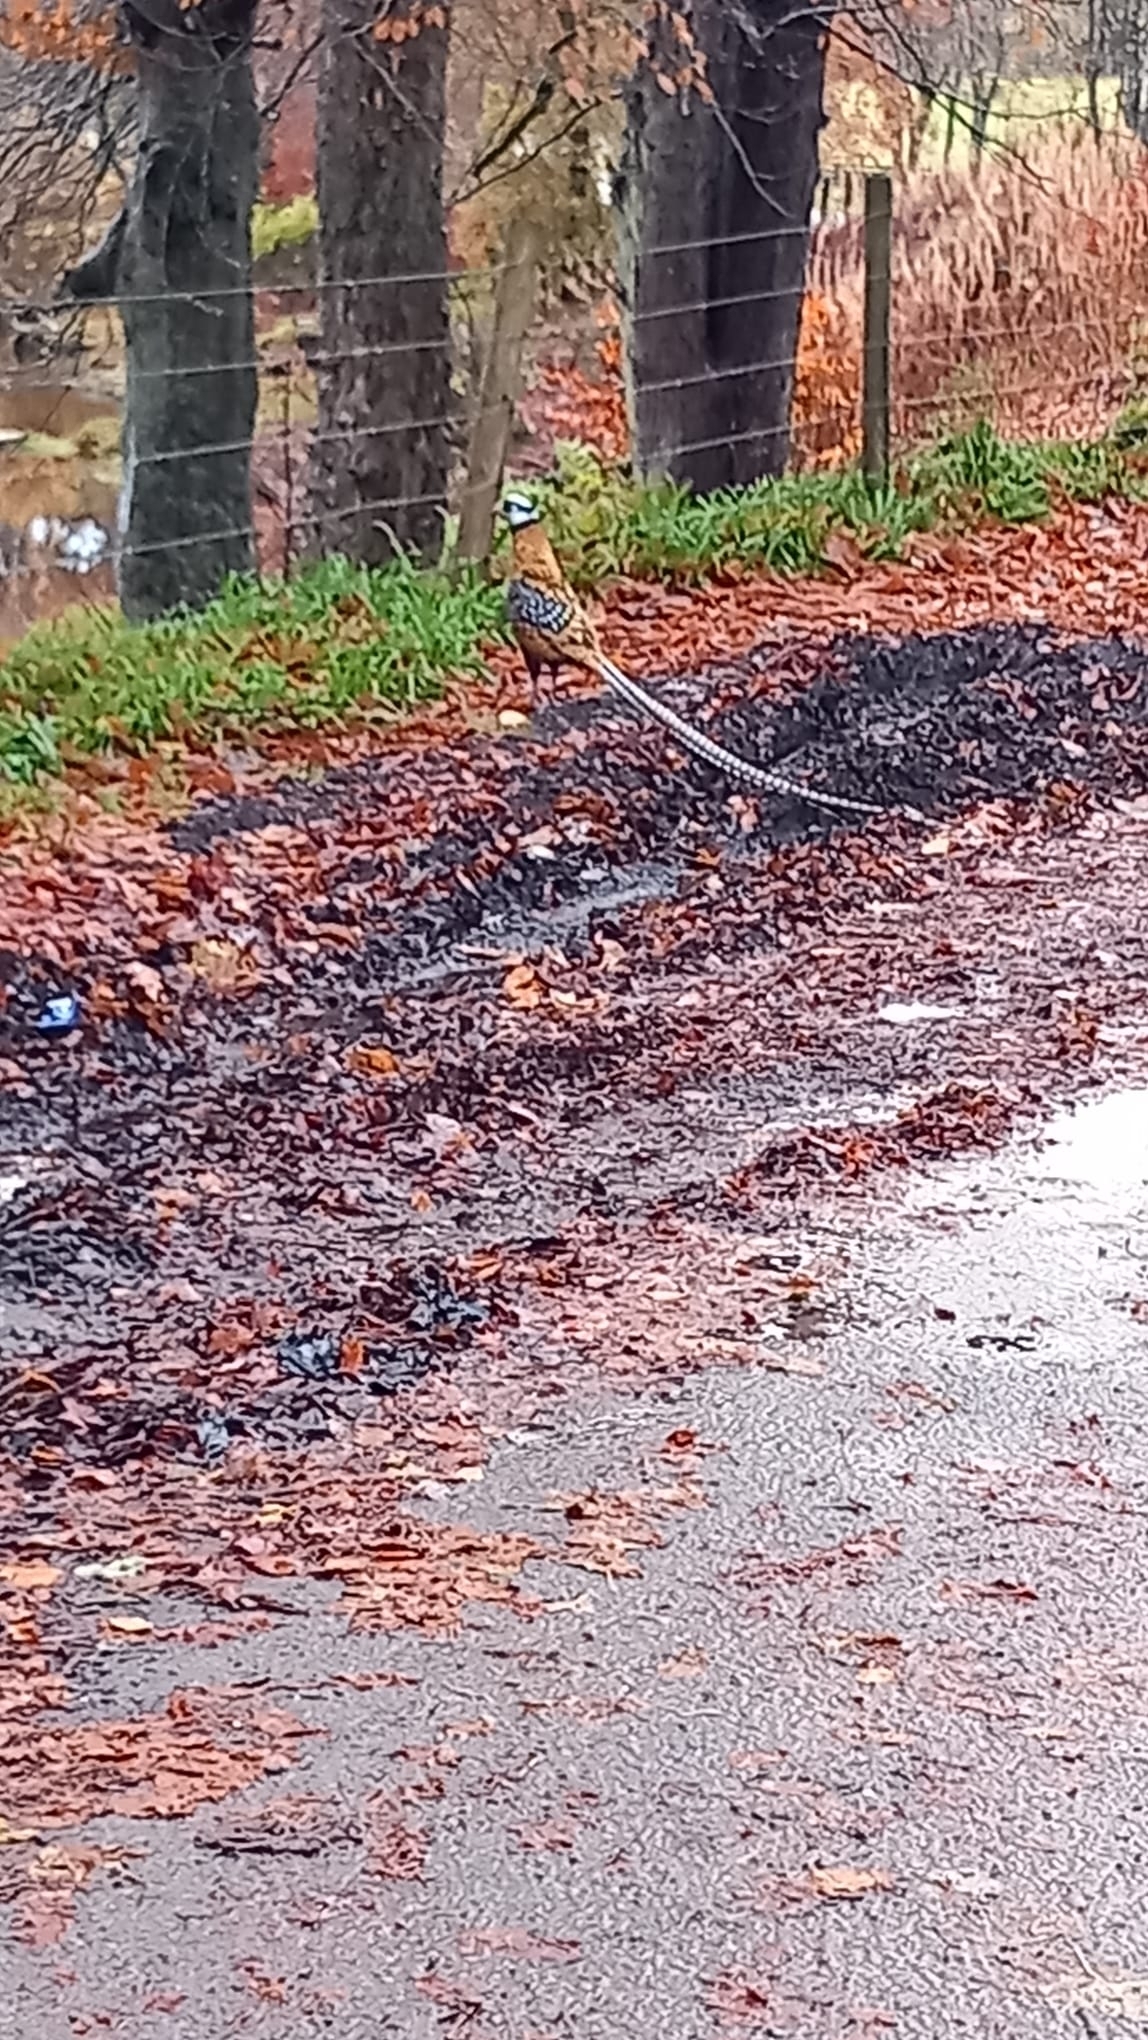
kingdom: Animalia
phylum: Chordata
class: Aves
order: Galliformes
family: Phasianidae
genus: Syrmaticus
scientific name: Syrmaticus reevesii
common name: Reeves's pheasant
